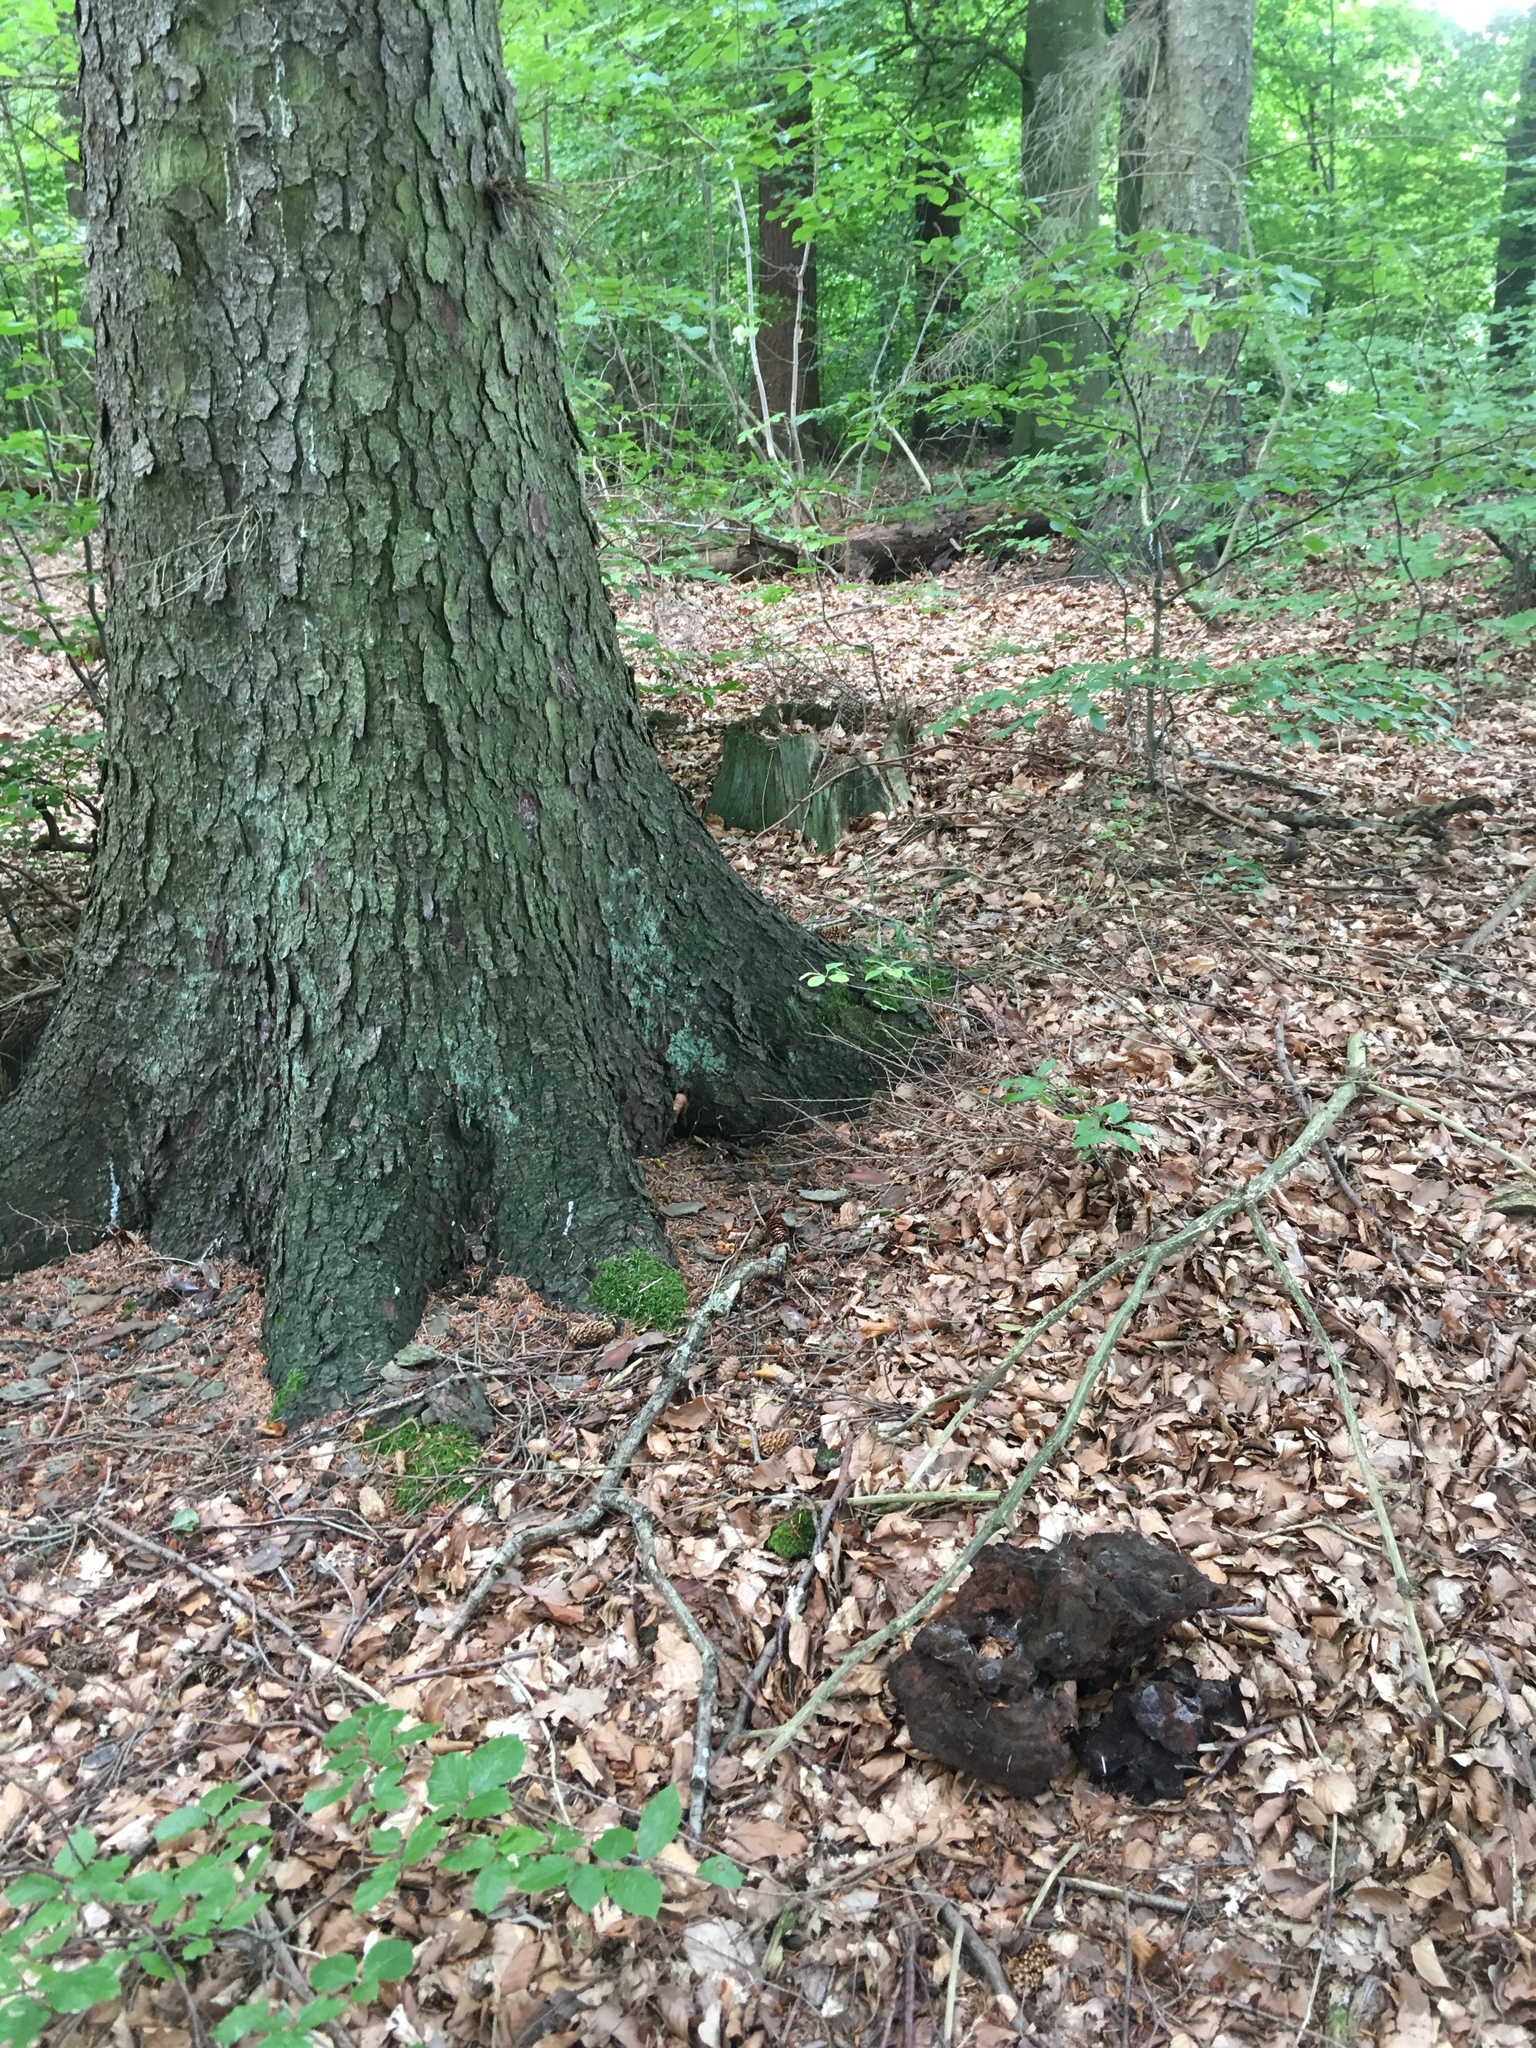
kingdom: Fungi
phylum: Basidiomycota
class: Agaricomycetes
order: Polyporales
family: Laetiporaceae
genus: Phaeolus
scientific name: Phaeolus schweinitzii
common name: Dyer's mazegill
